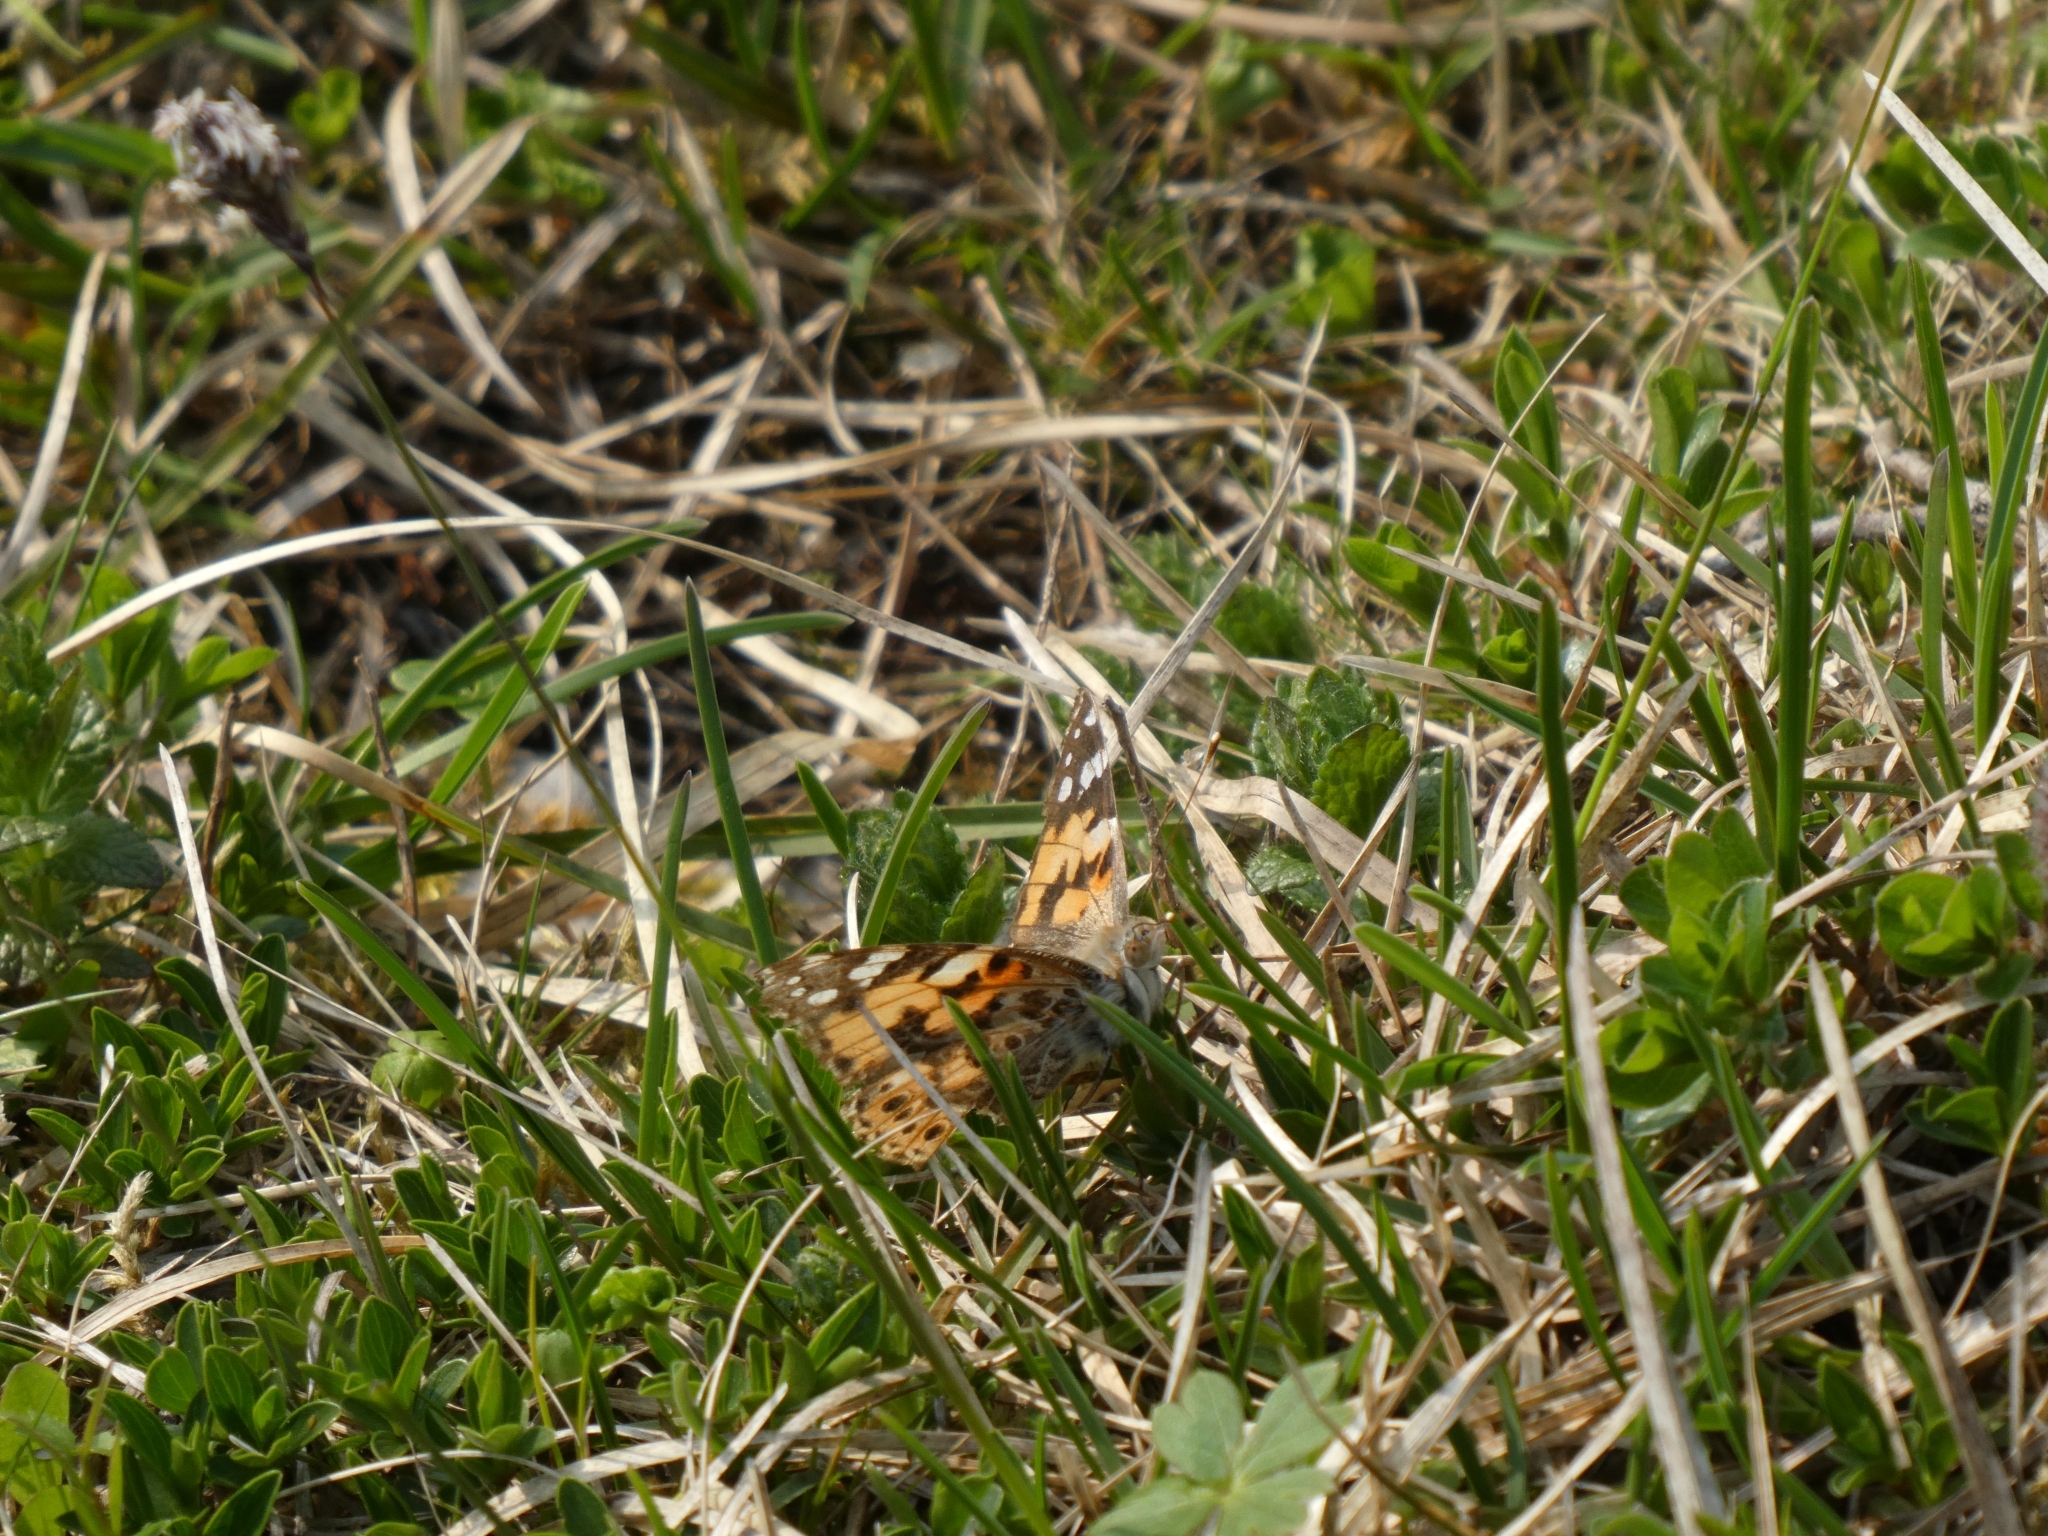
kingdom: Animalia
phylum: Arthropoda
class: Insecta
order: Lepidoptera
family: Nymphalidae
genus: Vanessa
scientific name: Vanessa cardui
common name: Painted lady
